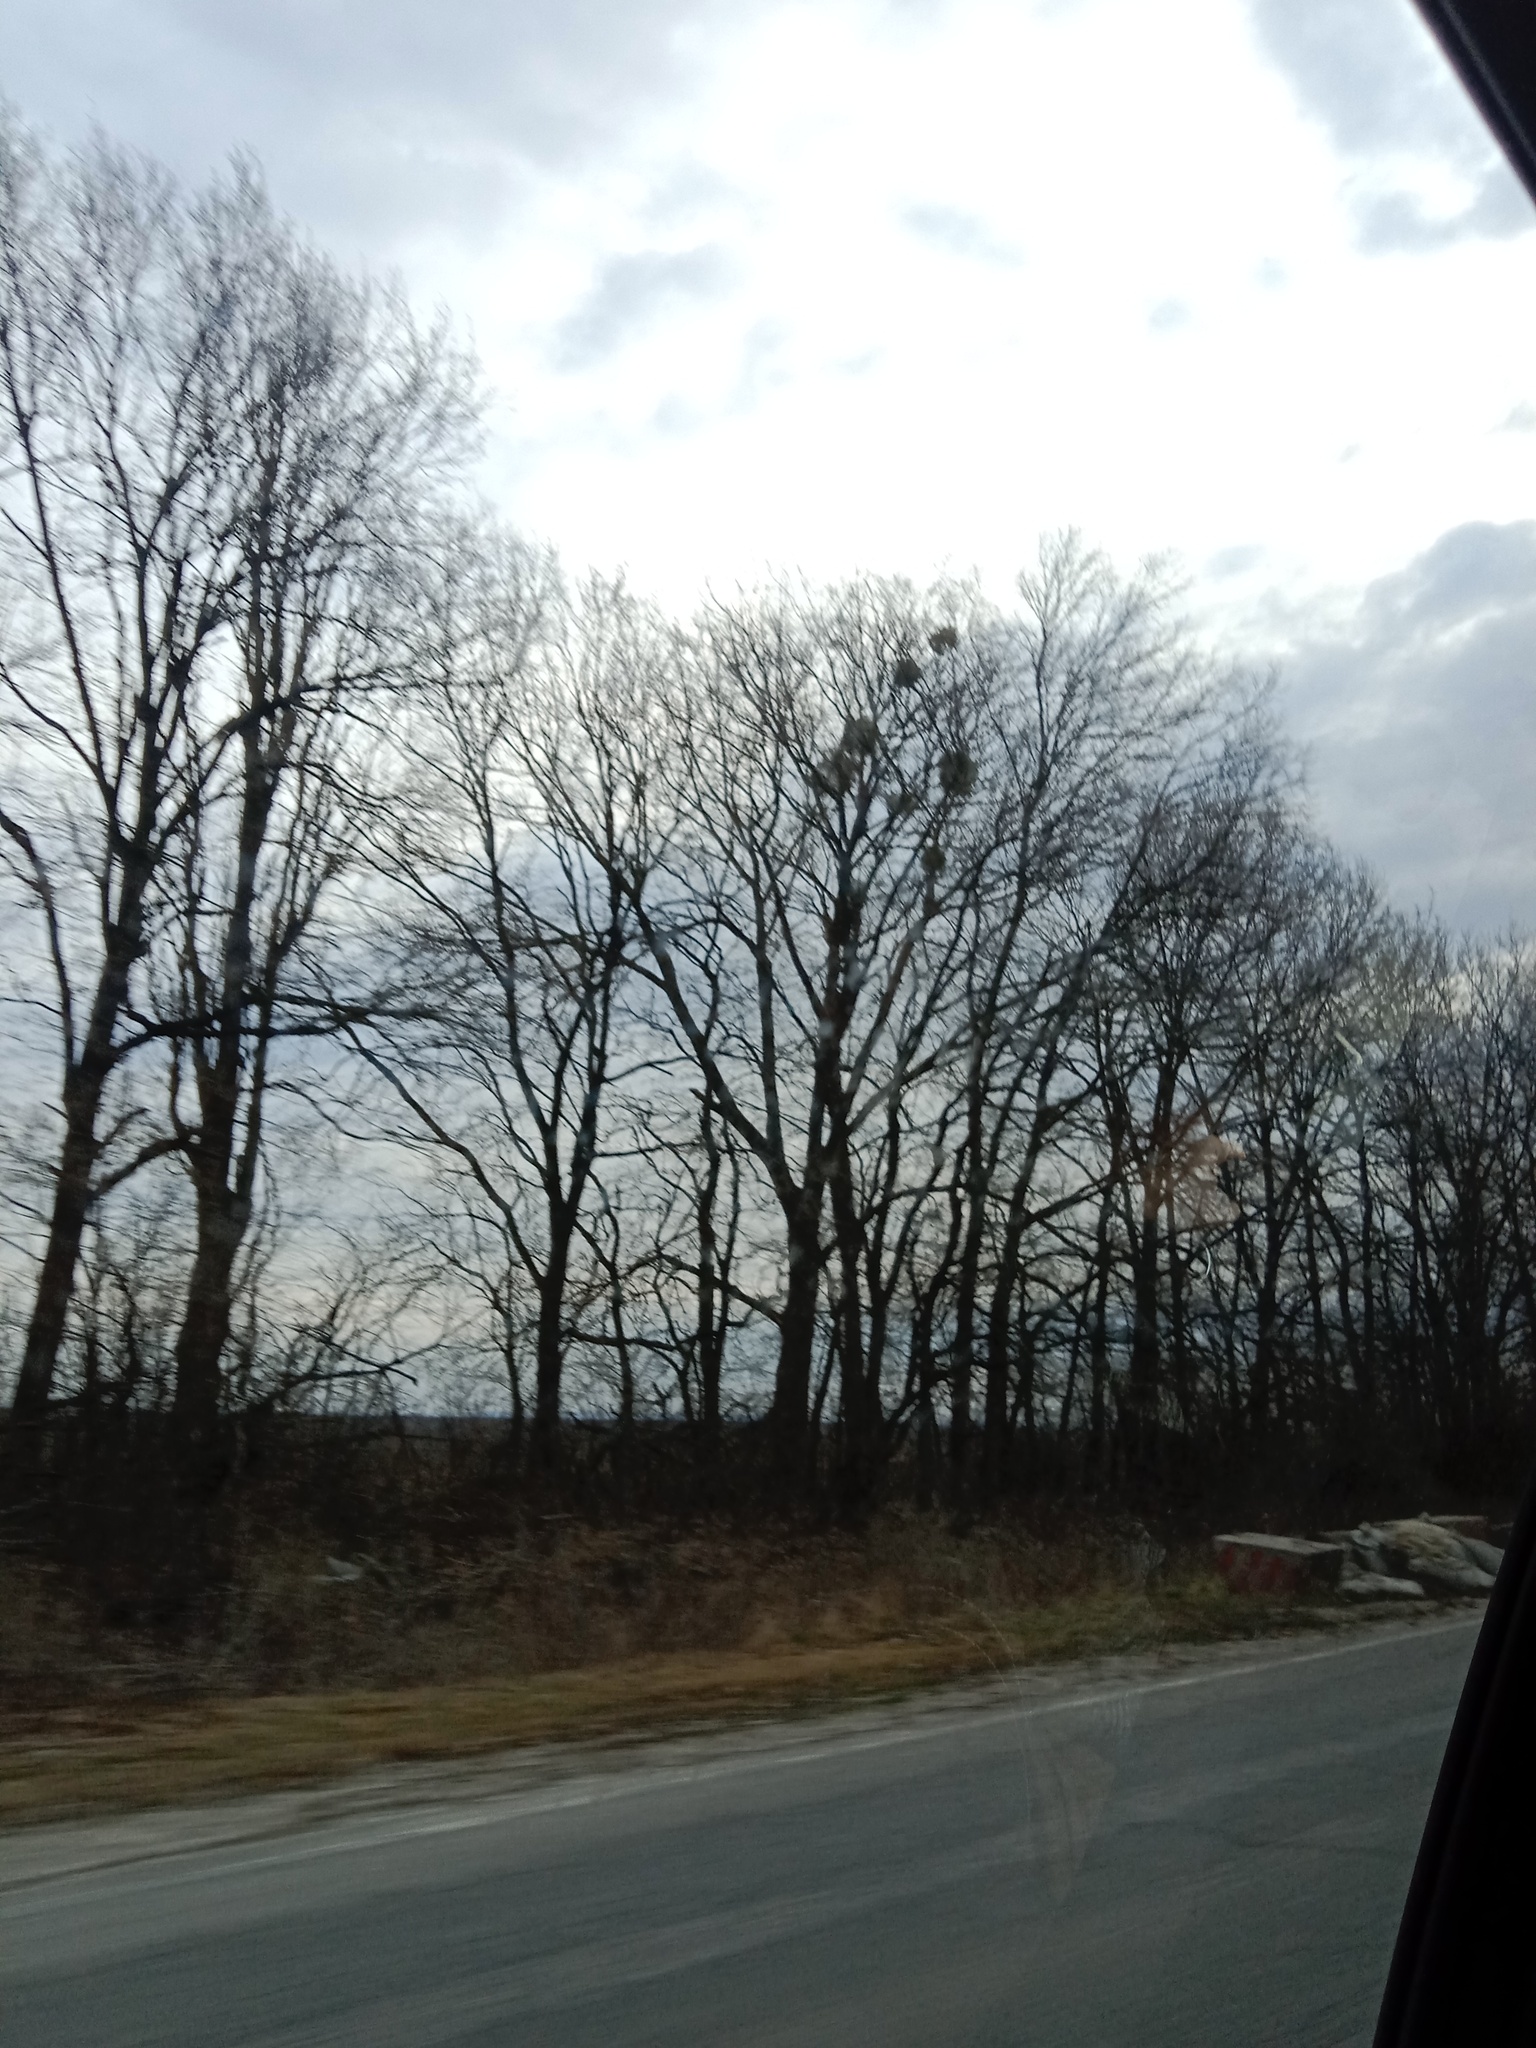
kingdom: Plantae
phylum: Tracheophyta
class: Magnoliopsida
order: Santalales
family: Viscaceae
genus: Viscum
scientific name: Viscum album
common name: Mistletoe
